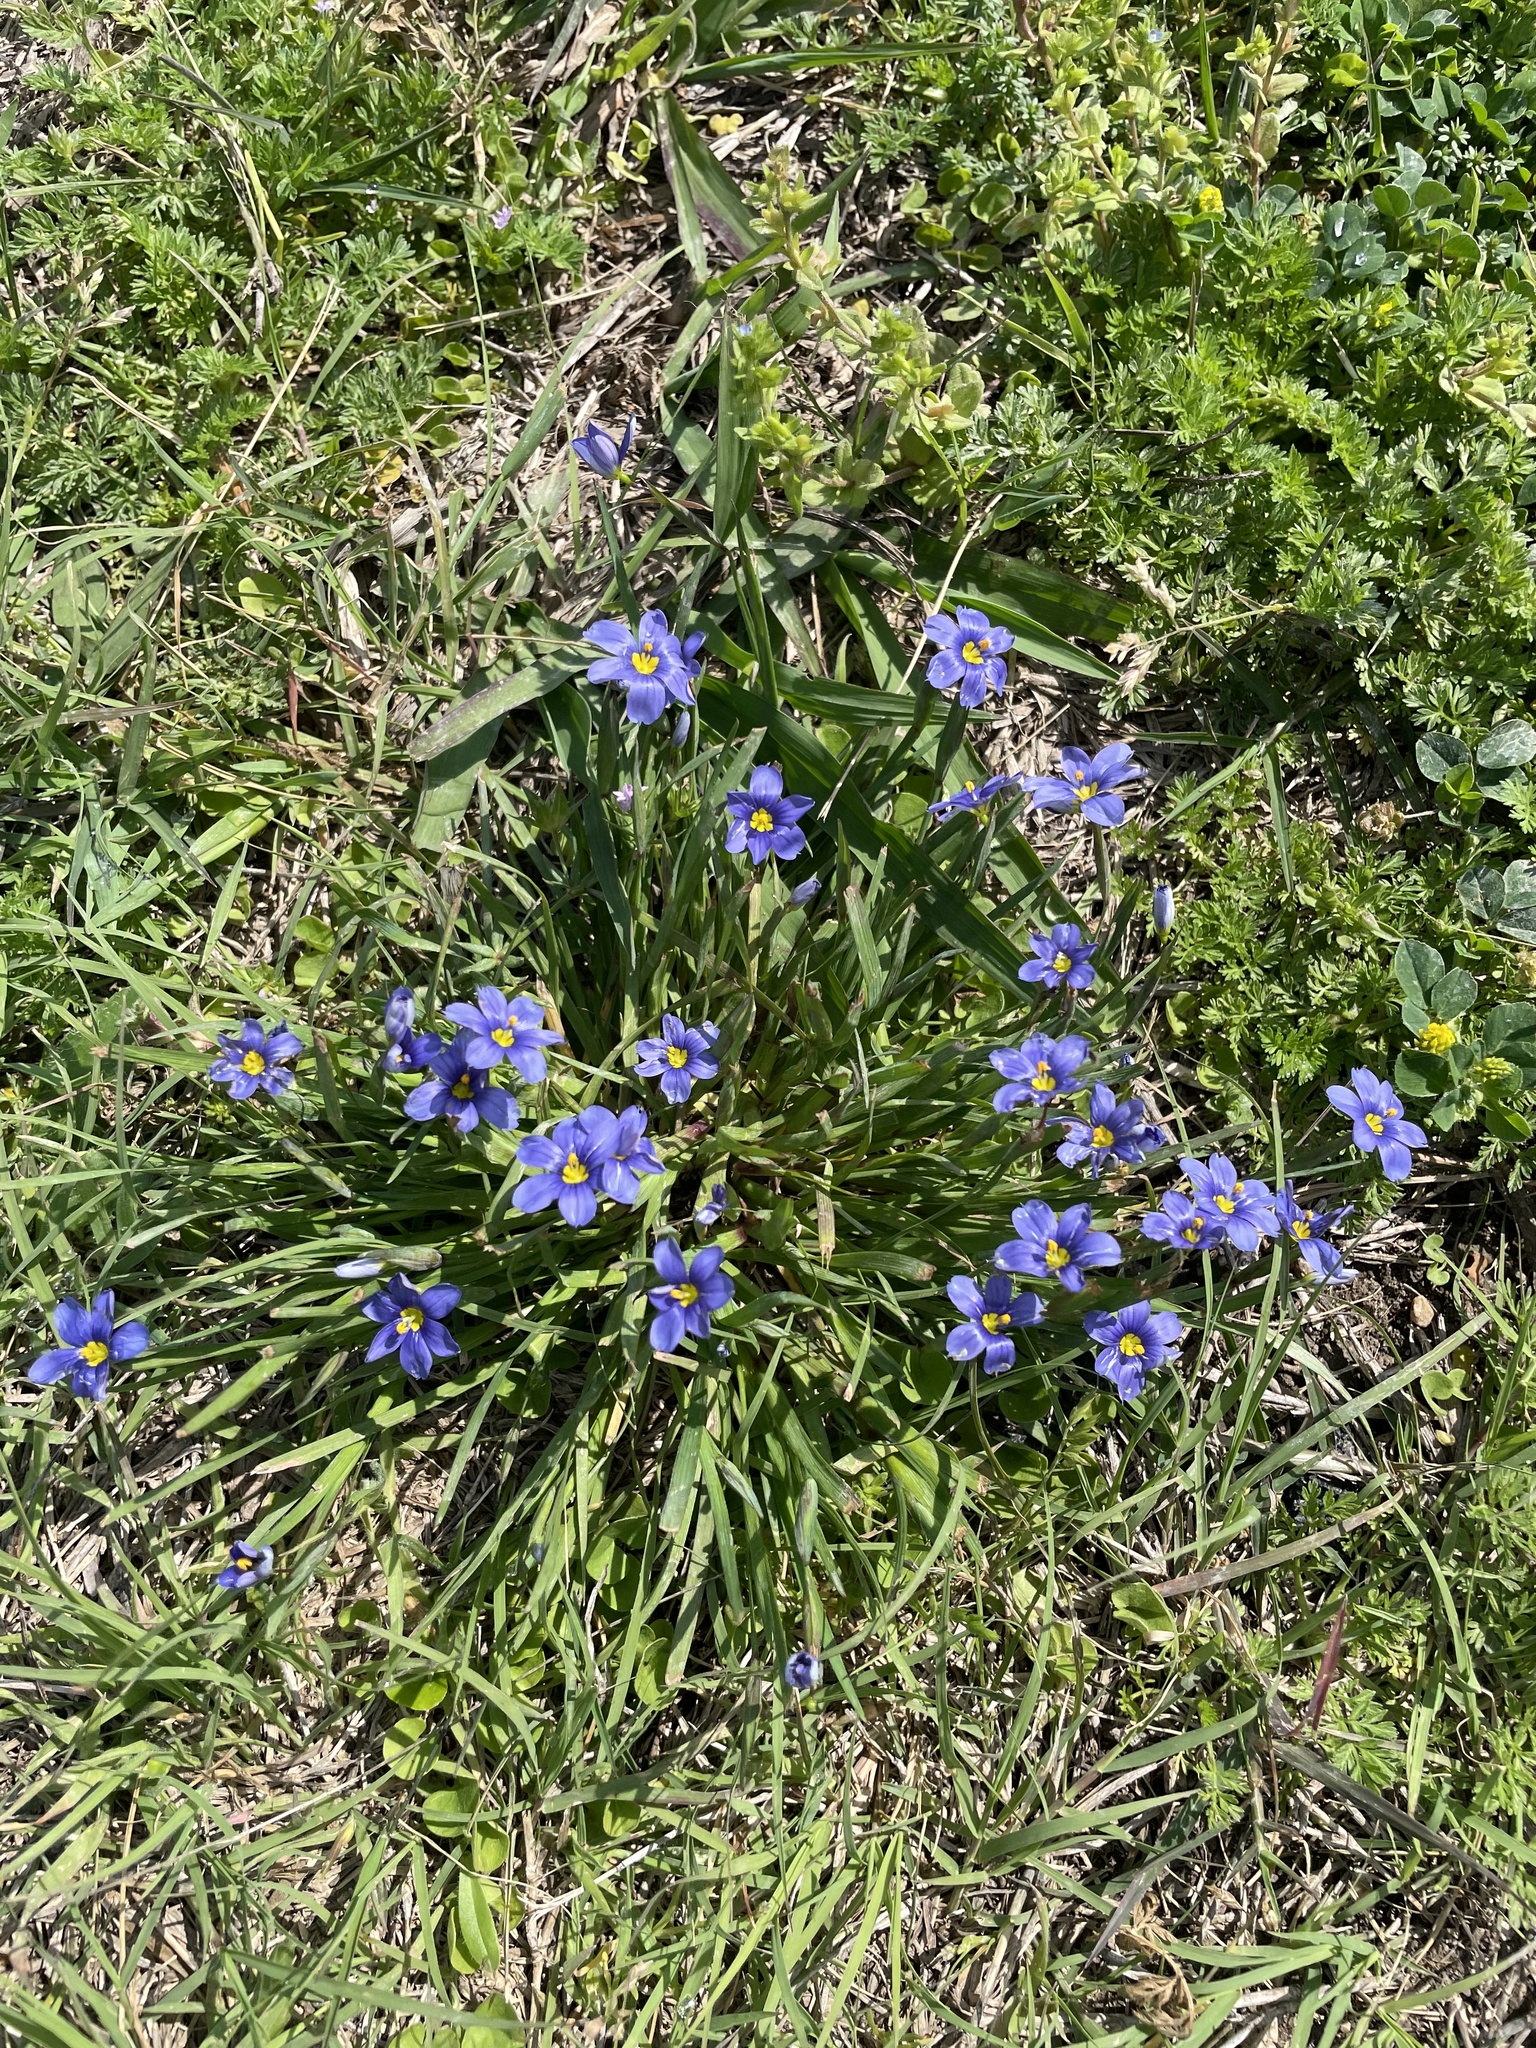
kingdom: Plantae
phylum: Tracheophyta
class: Liliopsida
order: Asparagales
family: Iridaceae
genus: Sisyrinchium
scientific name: Sisyrinchium pruinosum
